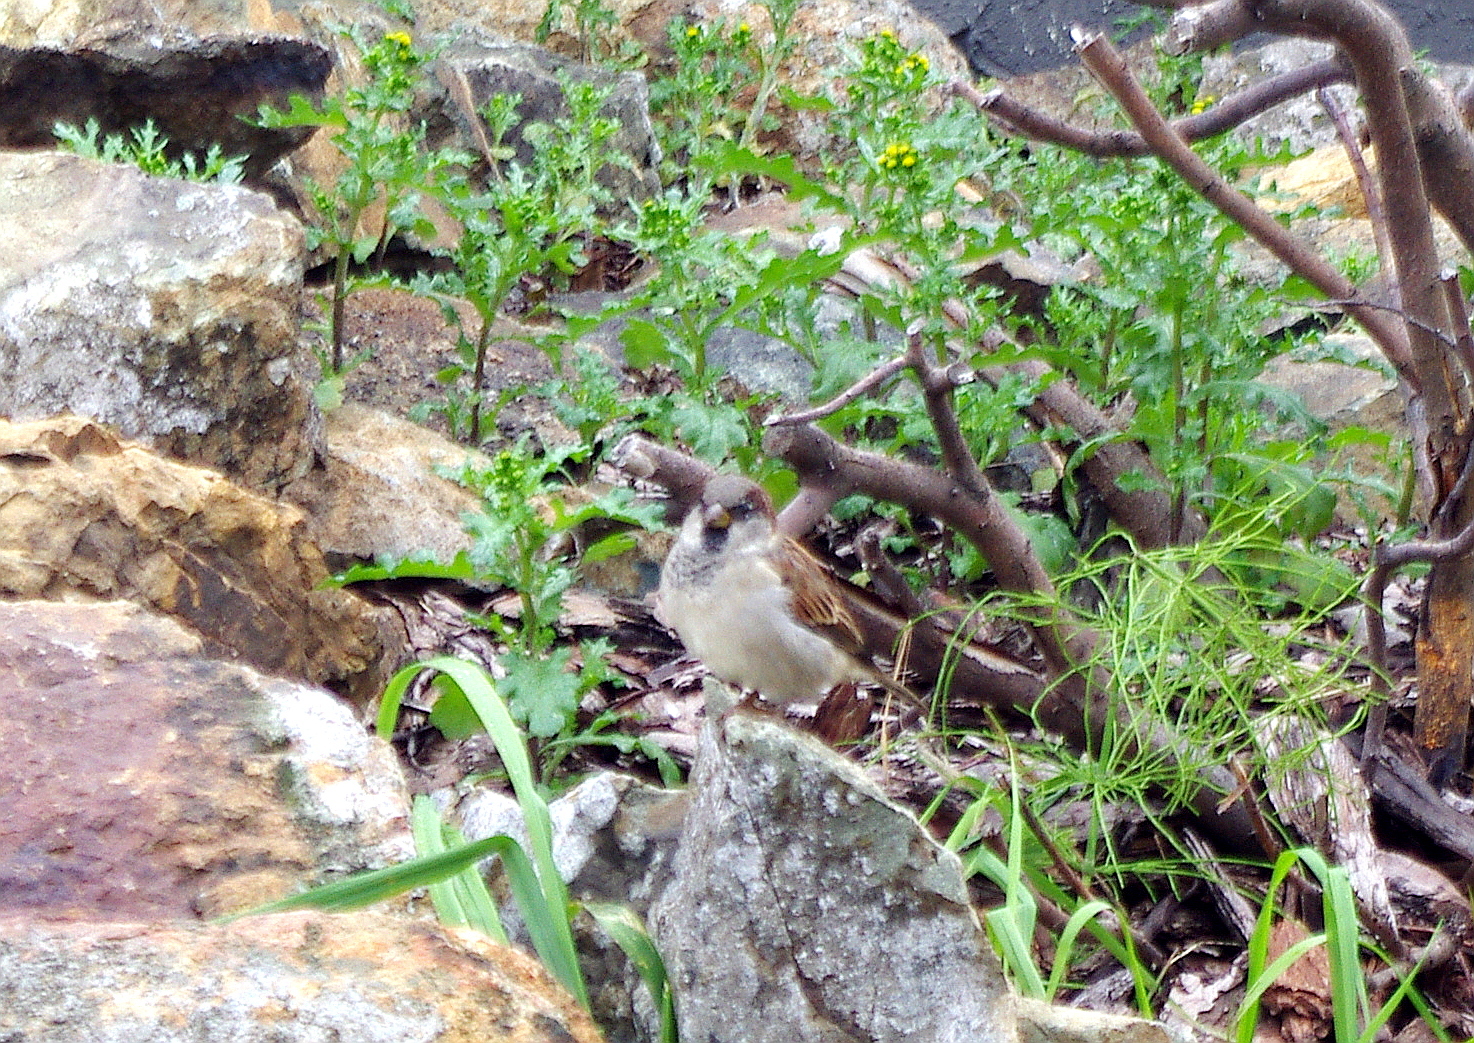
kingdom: Plantae
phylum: Tracheophyta
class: Magnoliopsida
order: Asterales
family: Asteraceae
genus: Senecio
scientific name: Senecio vulgaris
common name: Old-man-in-the-spring
